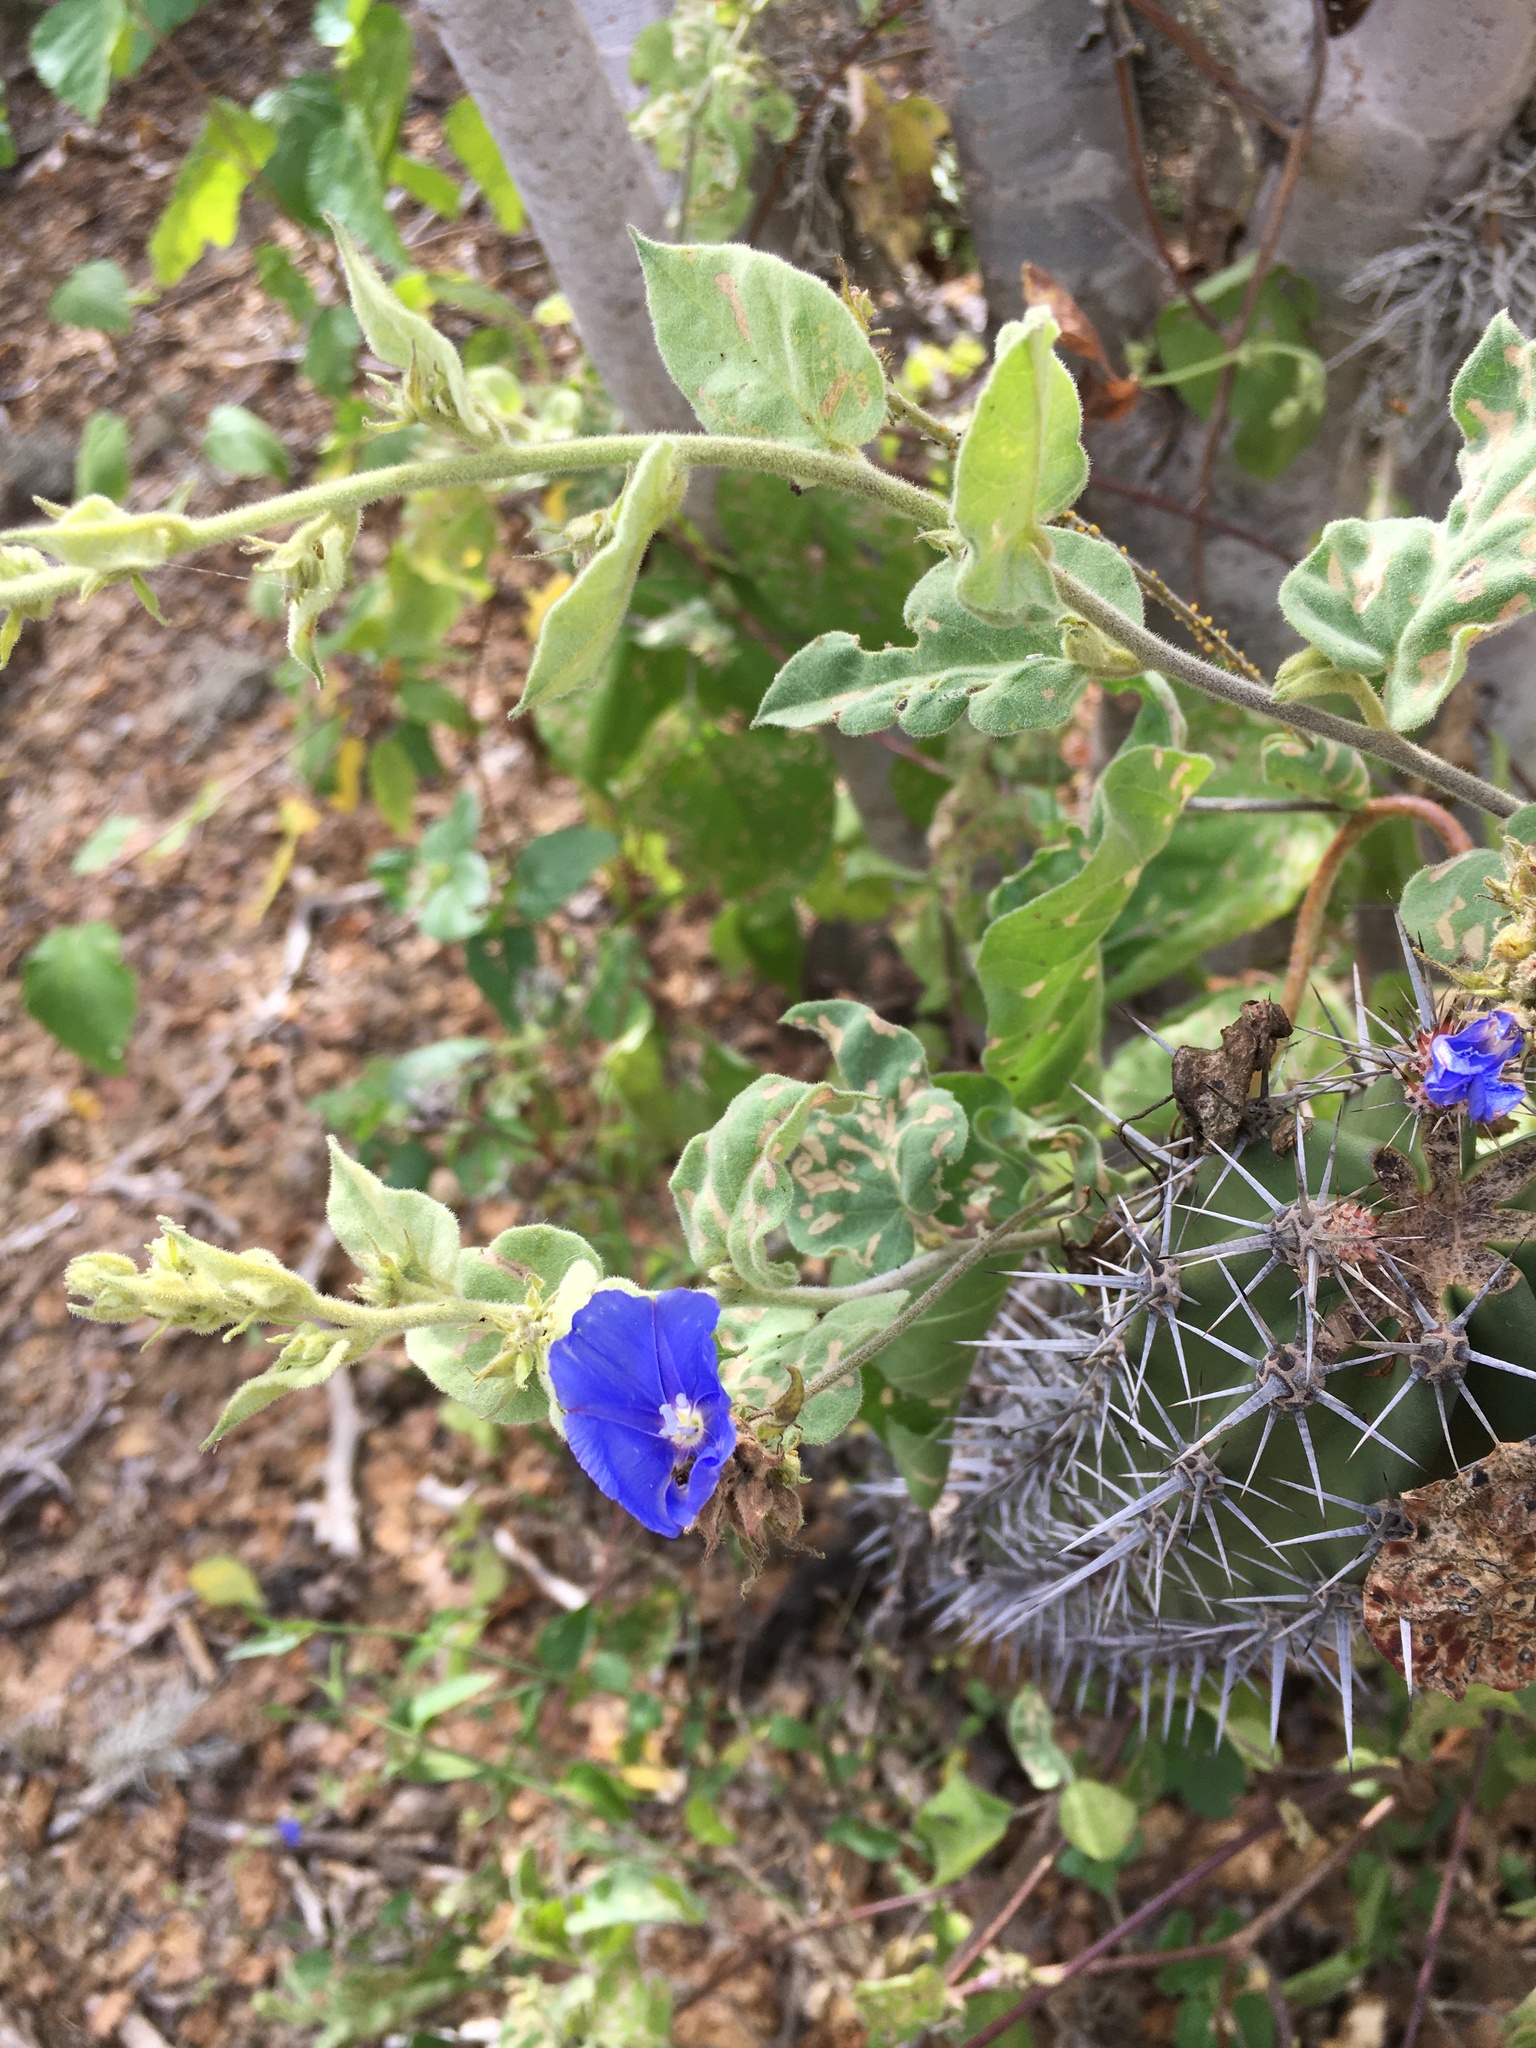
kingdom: Plantae
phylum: Tracheophyta
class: Magnoliopsida
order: Solanales
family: Convolvulaceae
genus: Jacquemontia
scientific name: Jacquemontia abutiloides
